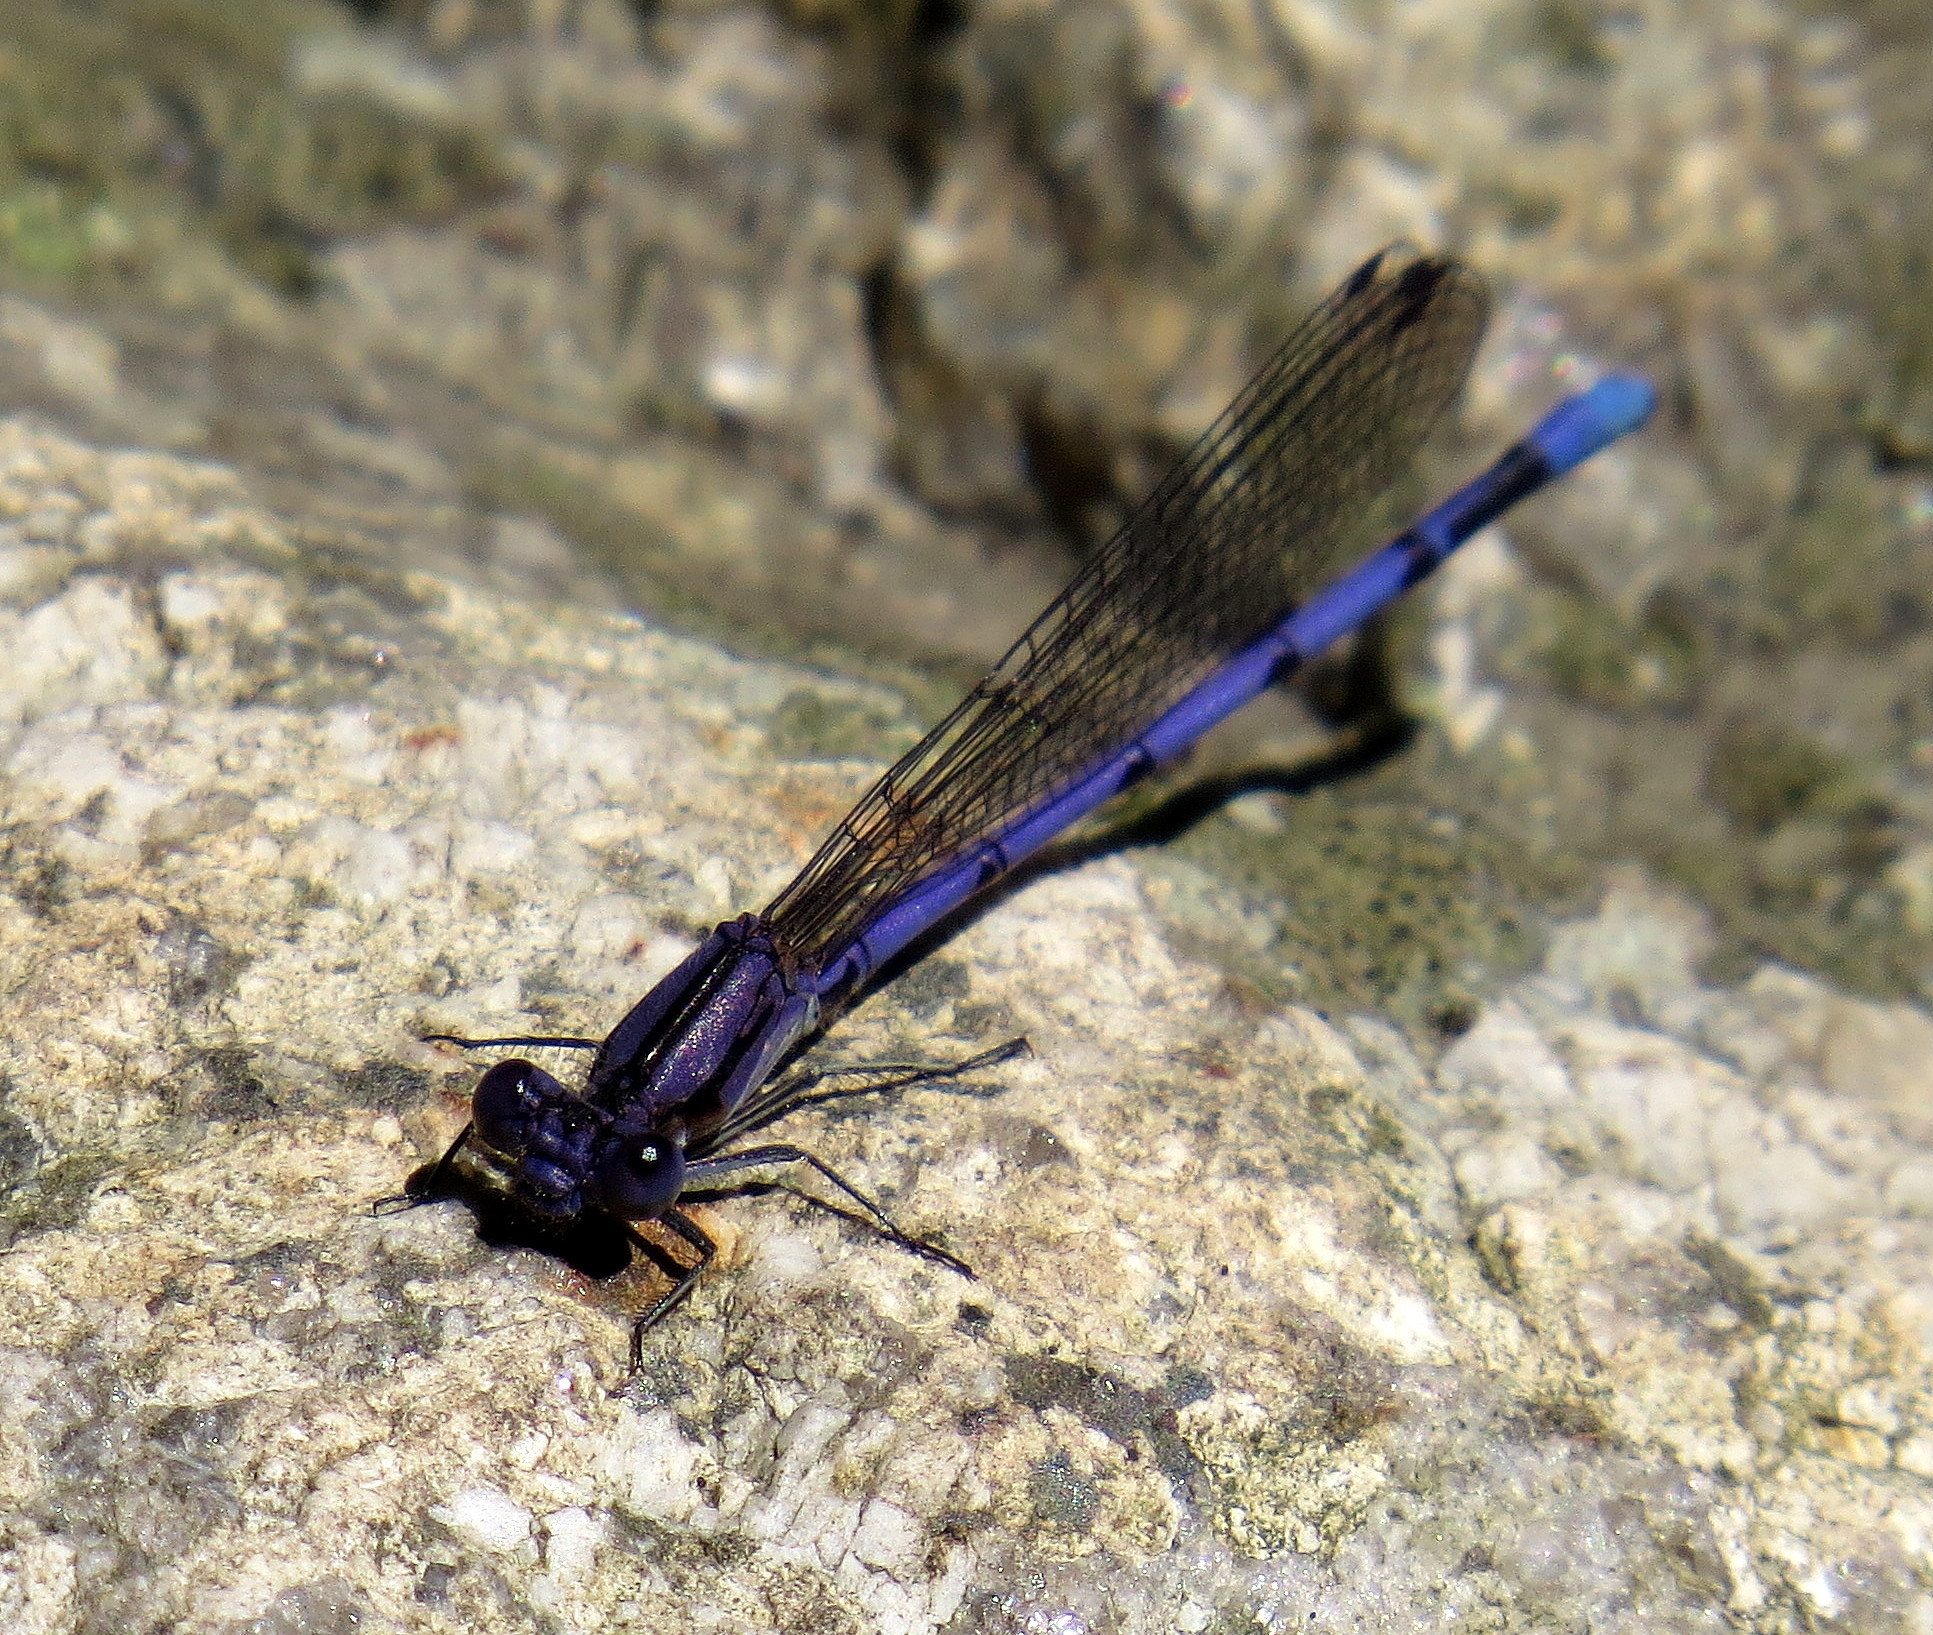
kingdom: Animalia
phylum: Arthropoda
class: Insecta
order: Odonata
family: Coenagrionidae
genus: Argia
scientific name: Argia fumipennis
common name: Variable dancer
